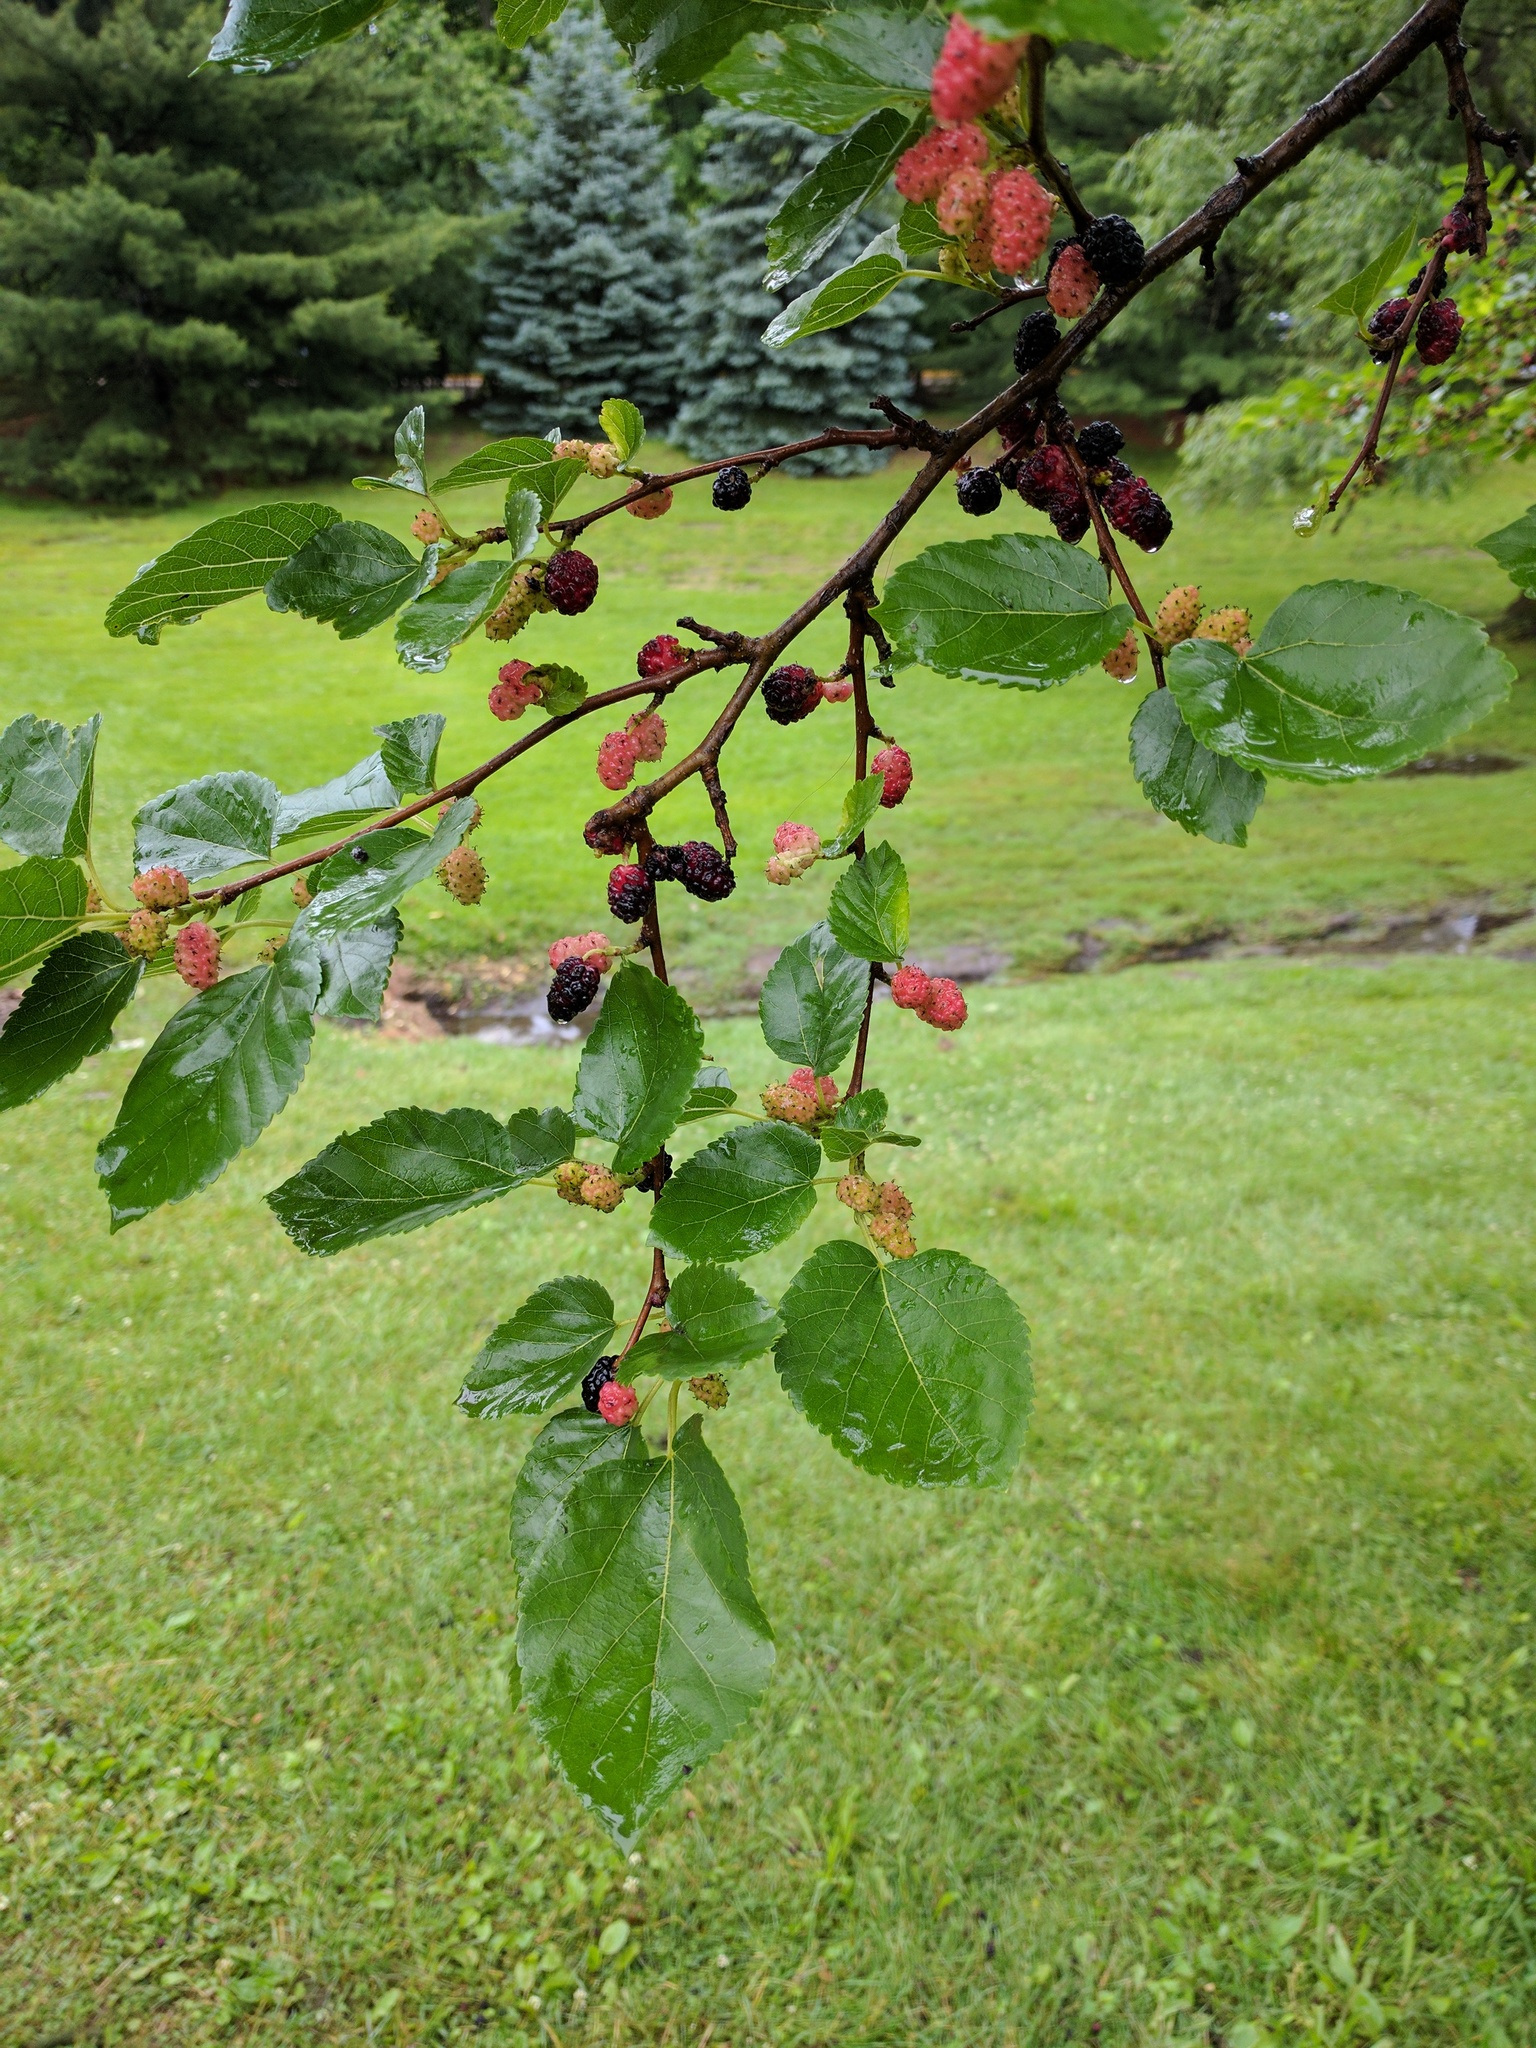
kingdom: Plantae
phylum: Tracheophyta
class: Magnoliopsida
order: Rosales
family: Moraceae
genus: Morus
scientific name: Morus alba
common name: White mulberry
